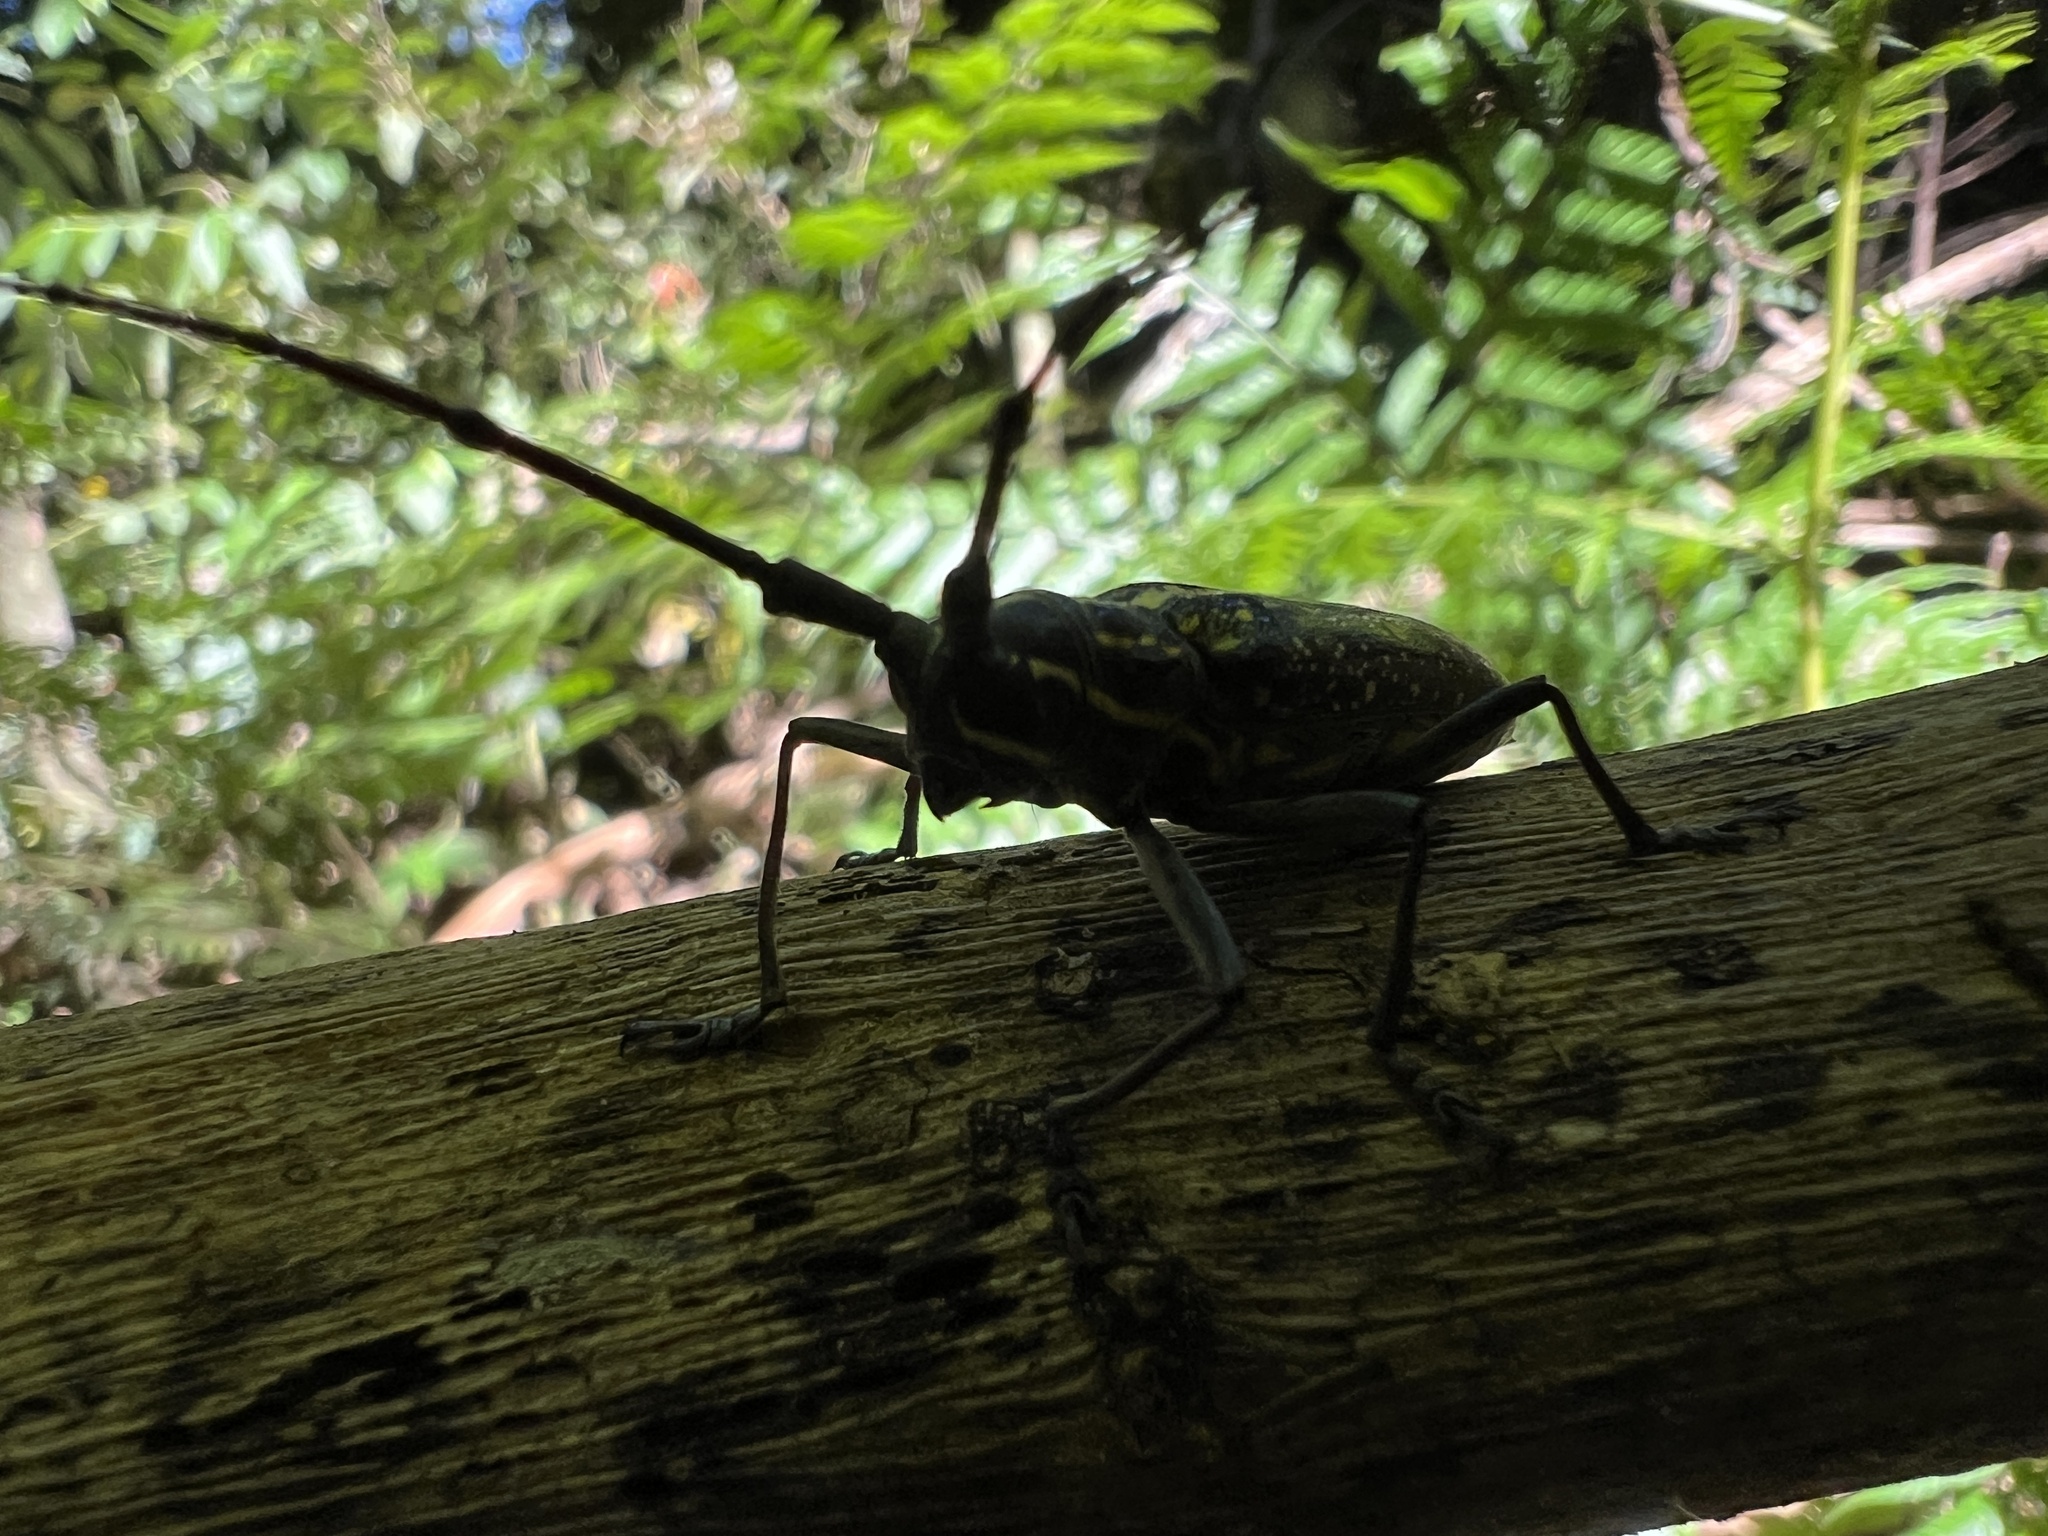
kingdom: Animalia
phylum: Arthropoda
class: Insecta
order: Coleoptera
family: Cerambycidae
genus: Taeniotes
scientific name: Taeniotes amazonum
